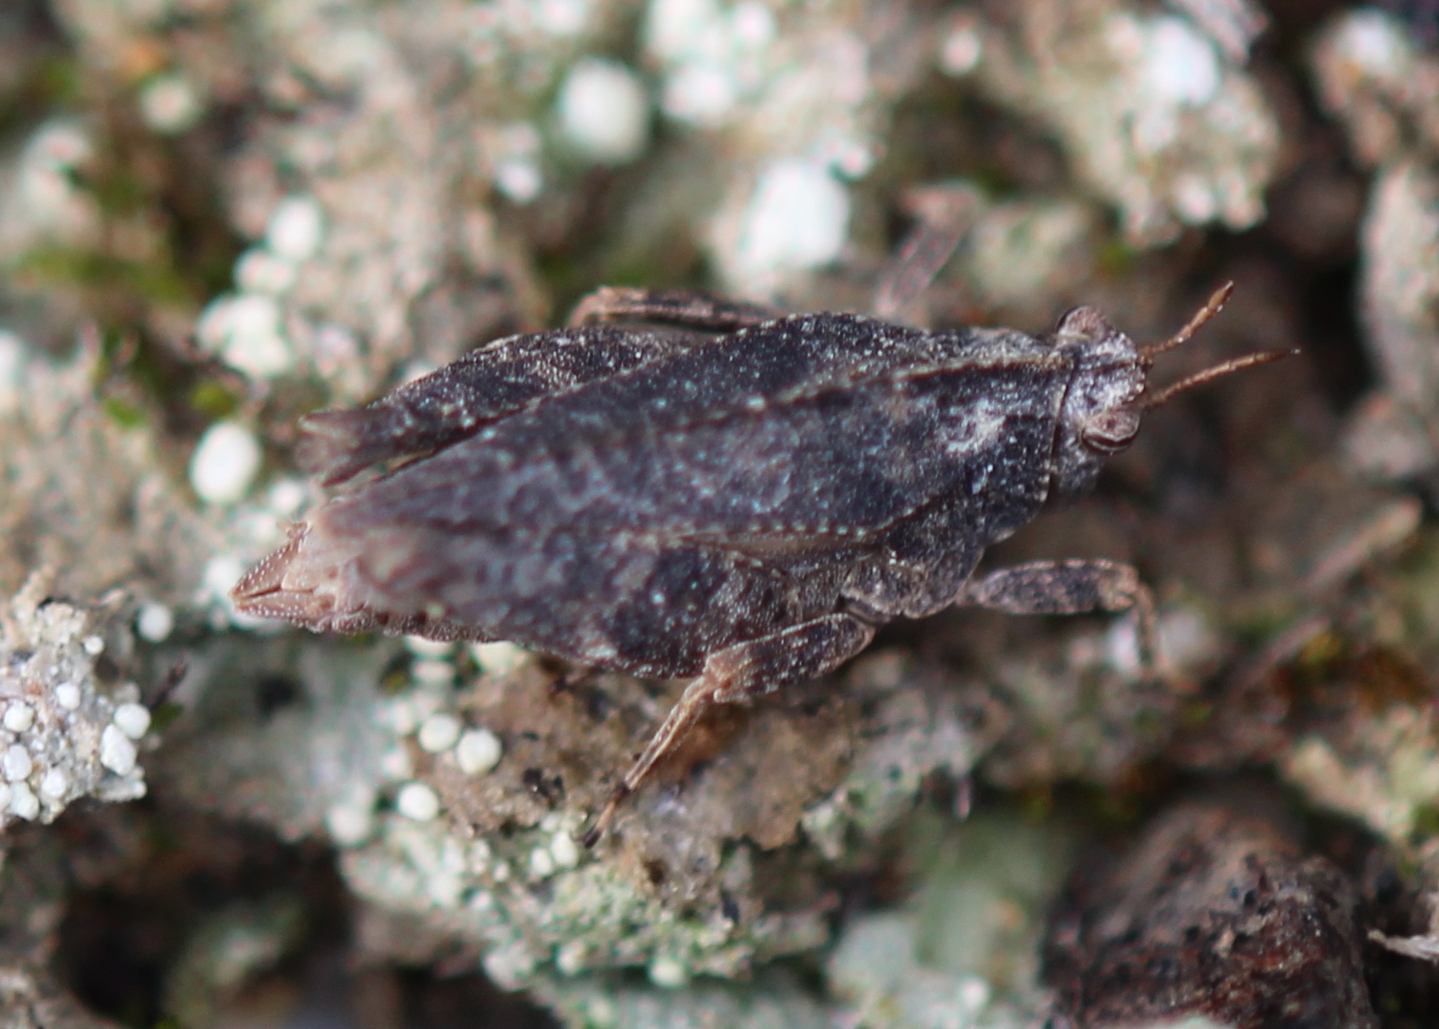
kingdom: Animalia
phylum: Arthropoda
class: Insecta
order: Orthoptera
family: Tetrigidae
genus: Nomotettix
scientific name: Nomotettix cristatus
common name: Crested grouse locust
